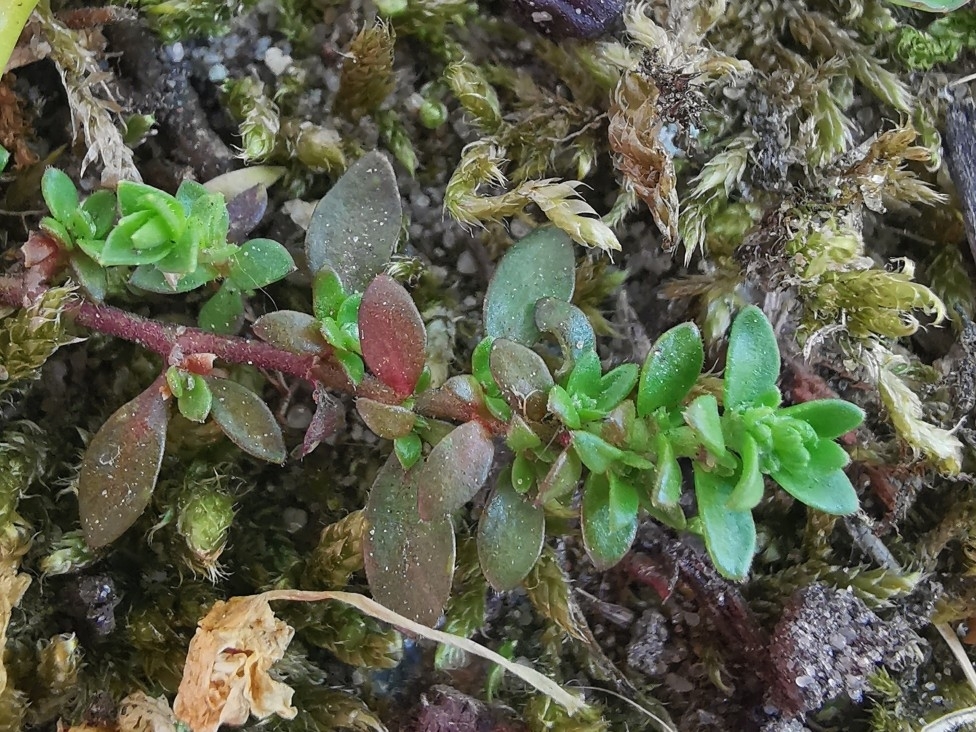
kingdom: Plantae
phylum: Tracheophyta
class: Magnoliopsida
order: Caryophyllales
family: Caryophyllaceae
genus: Herniaria
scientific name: Herniaria glabra
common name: Smooth rupturewort
